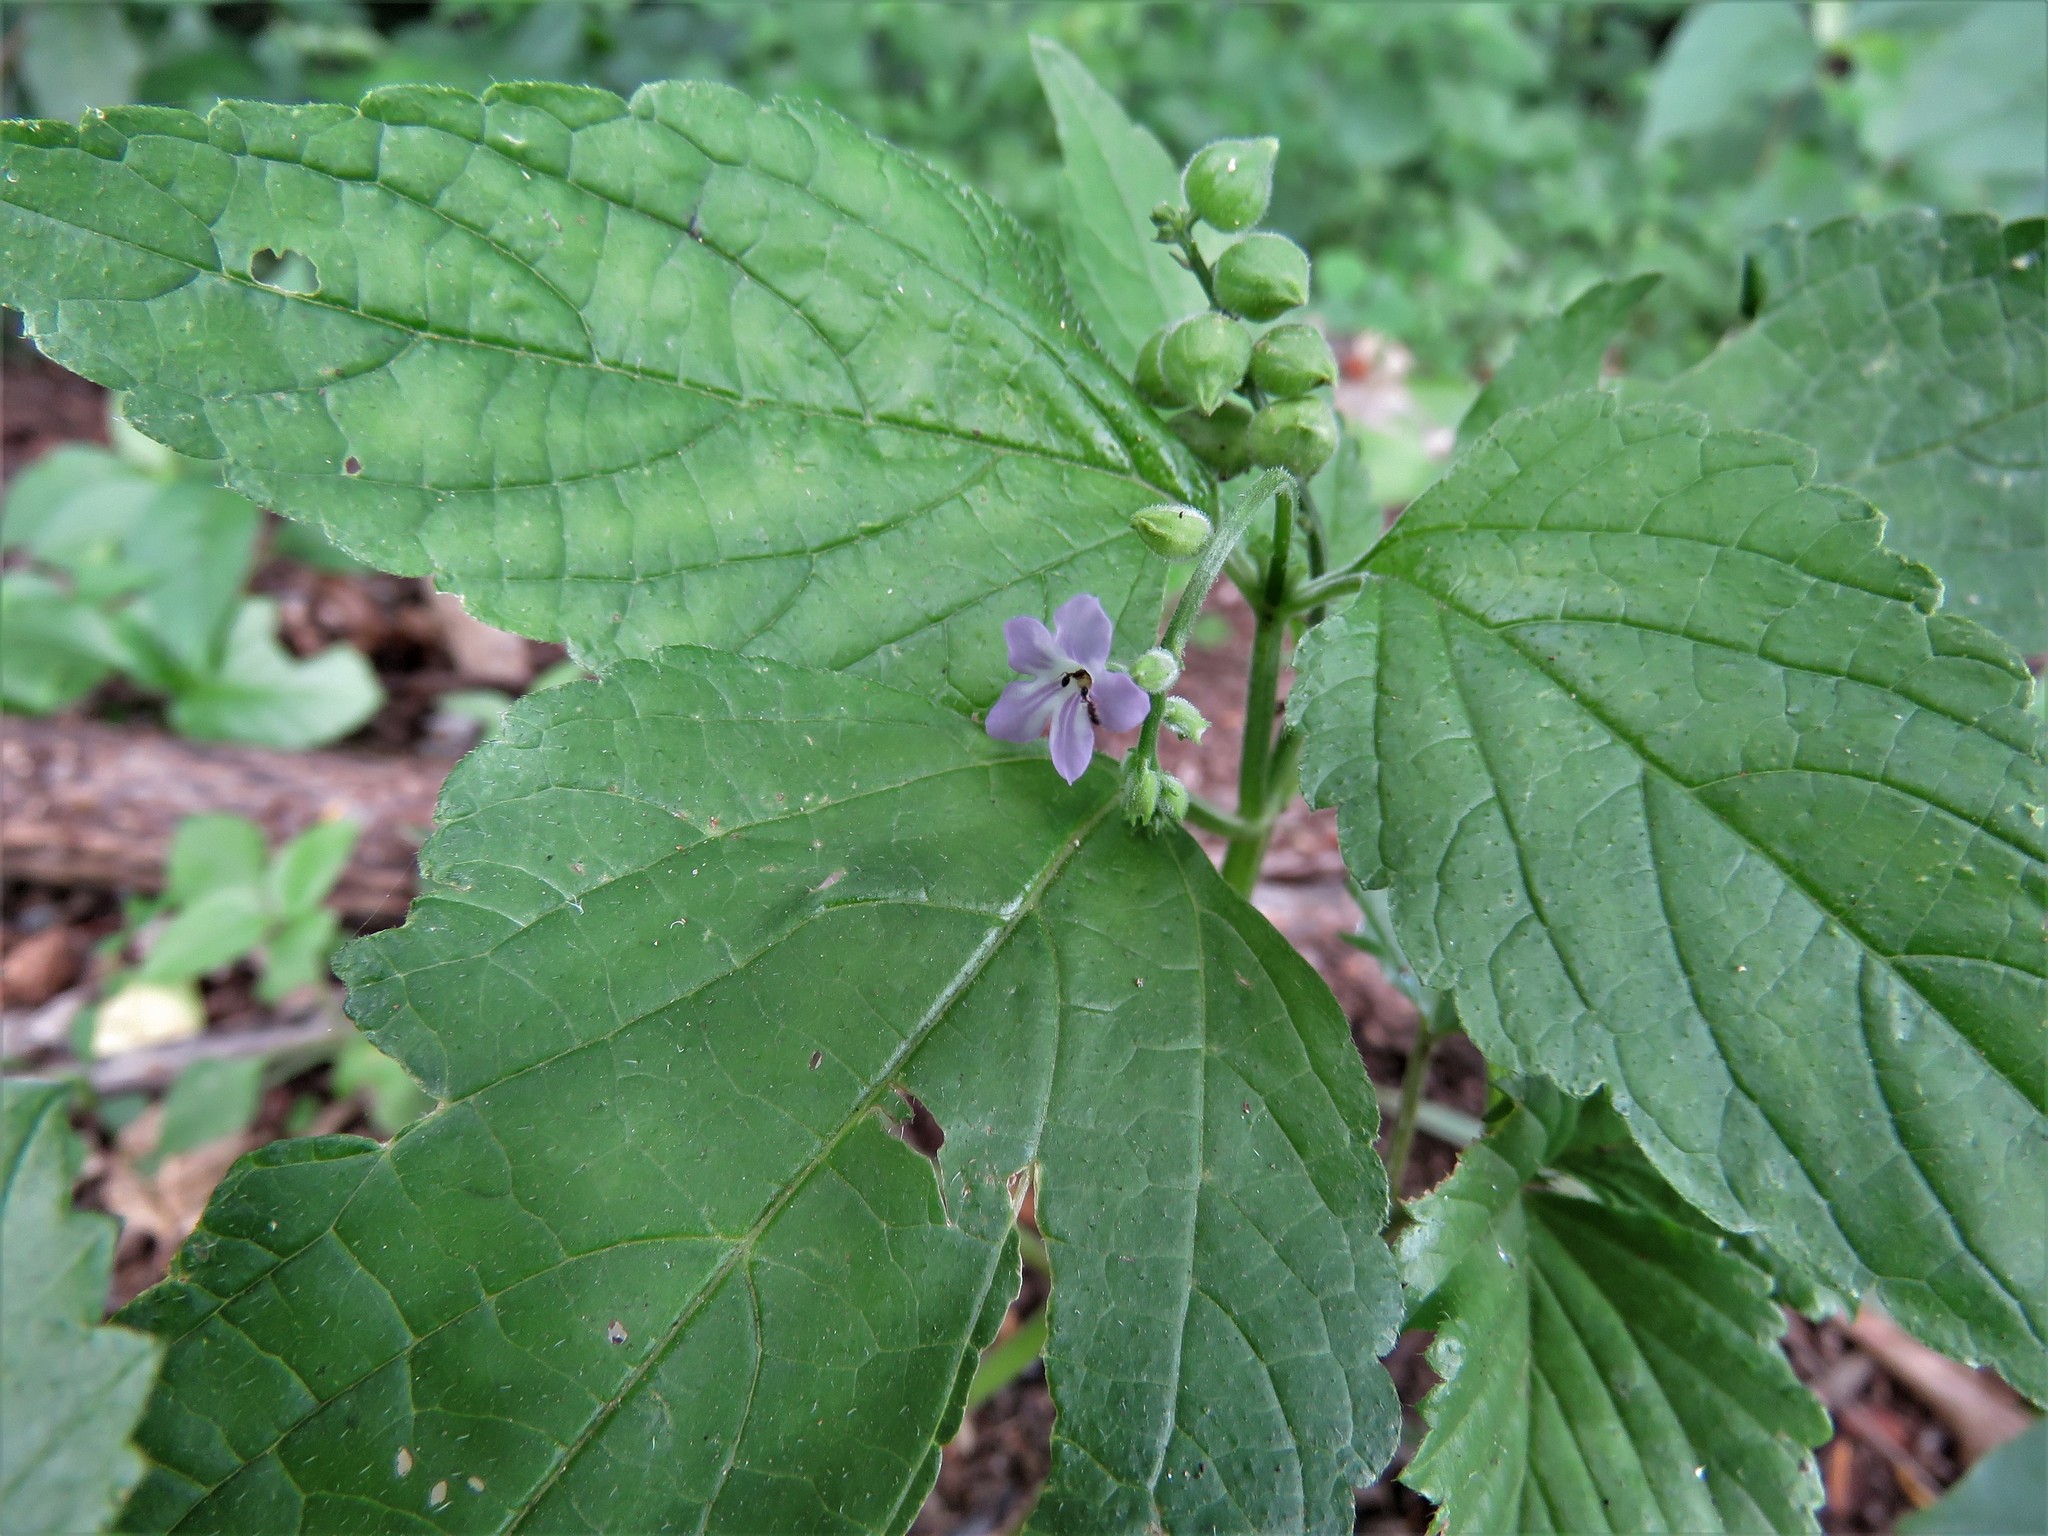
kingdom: Plantae
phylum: Tracheophyta
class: Magnoliopsida
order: Lamiales
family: Verbenaceae
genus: Priva
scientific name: Priva lappulacea
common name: Fasten-'pon-coat
